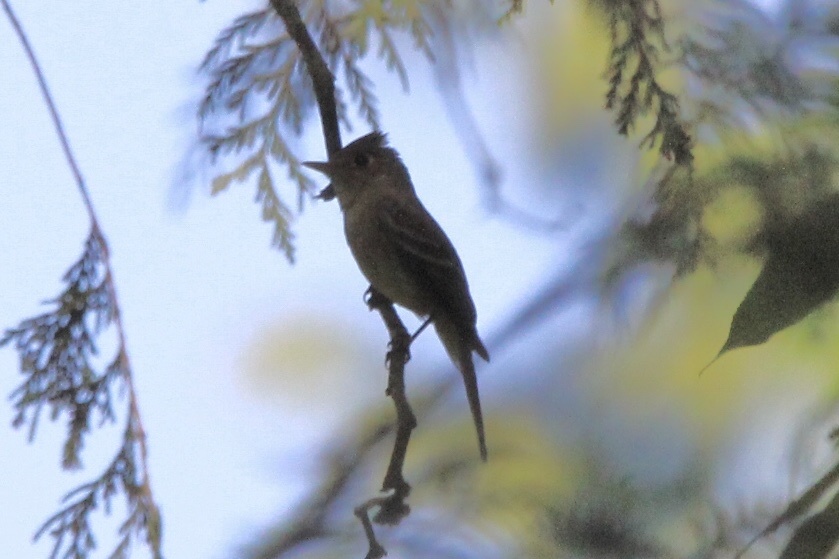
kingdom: Animalia
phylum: Chordata
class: Aves
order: Passeriformes
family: Tyrannidae
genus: Empidonax
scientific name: Empidonax difficilis
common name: Pacific-slope flycatcher
